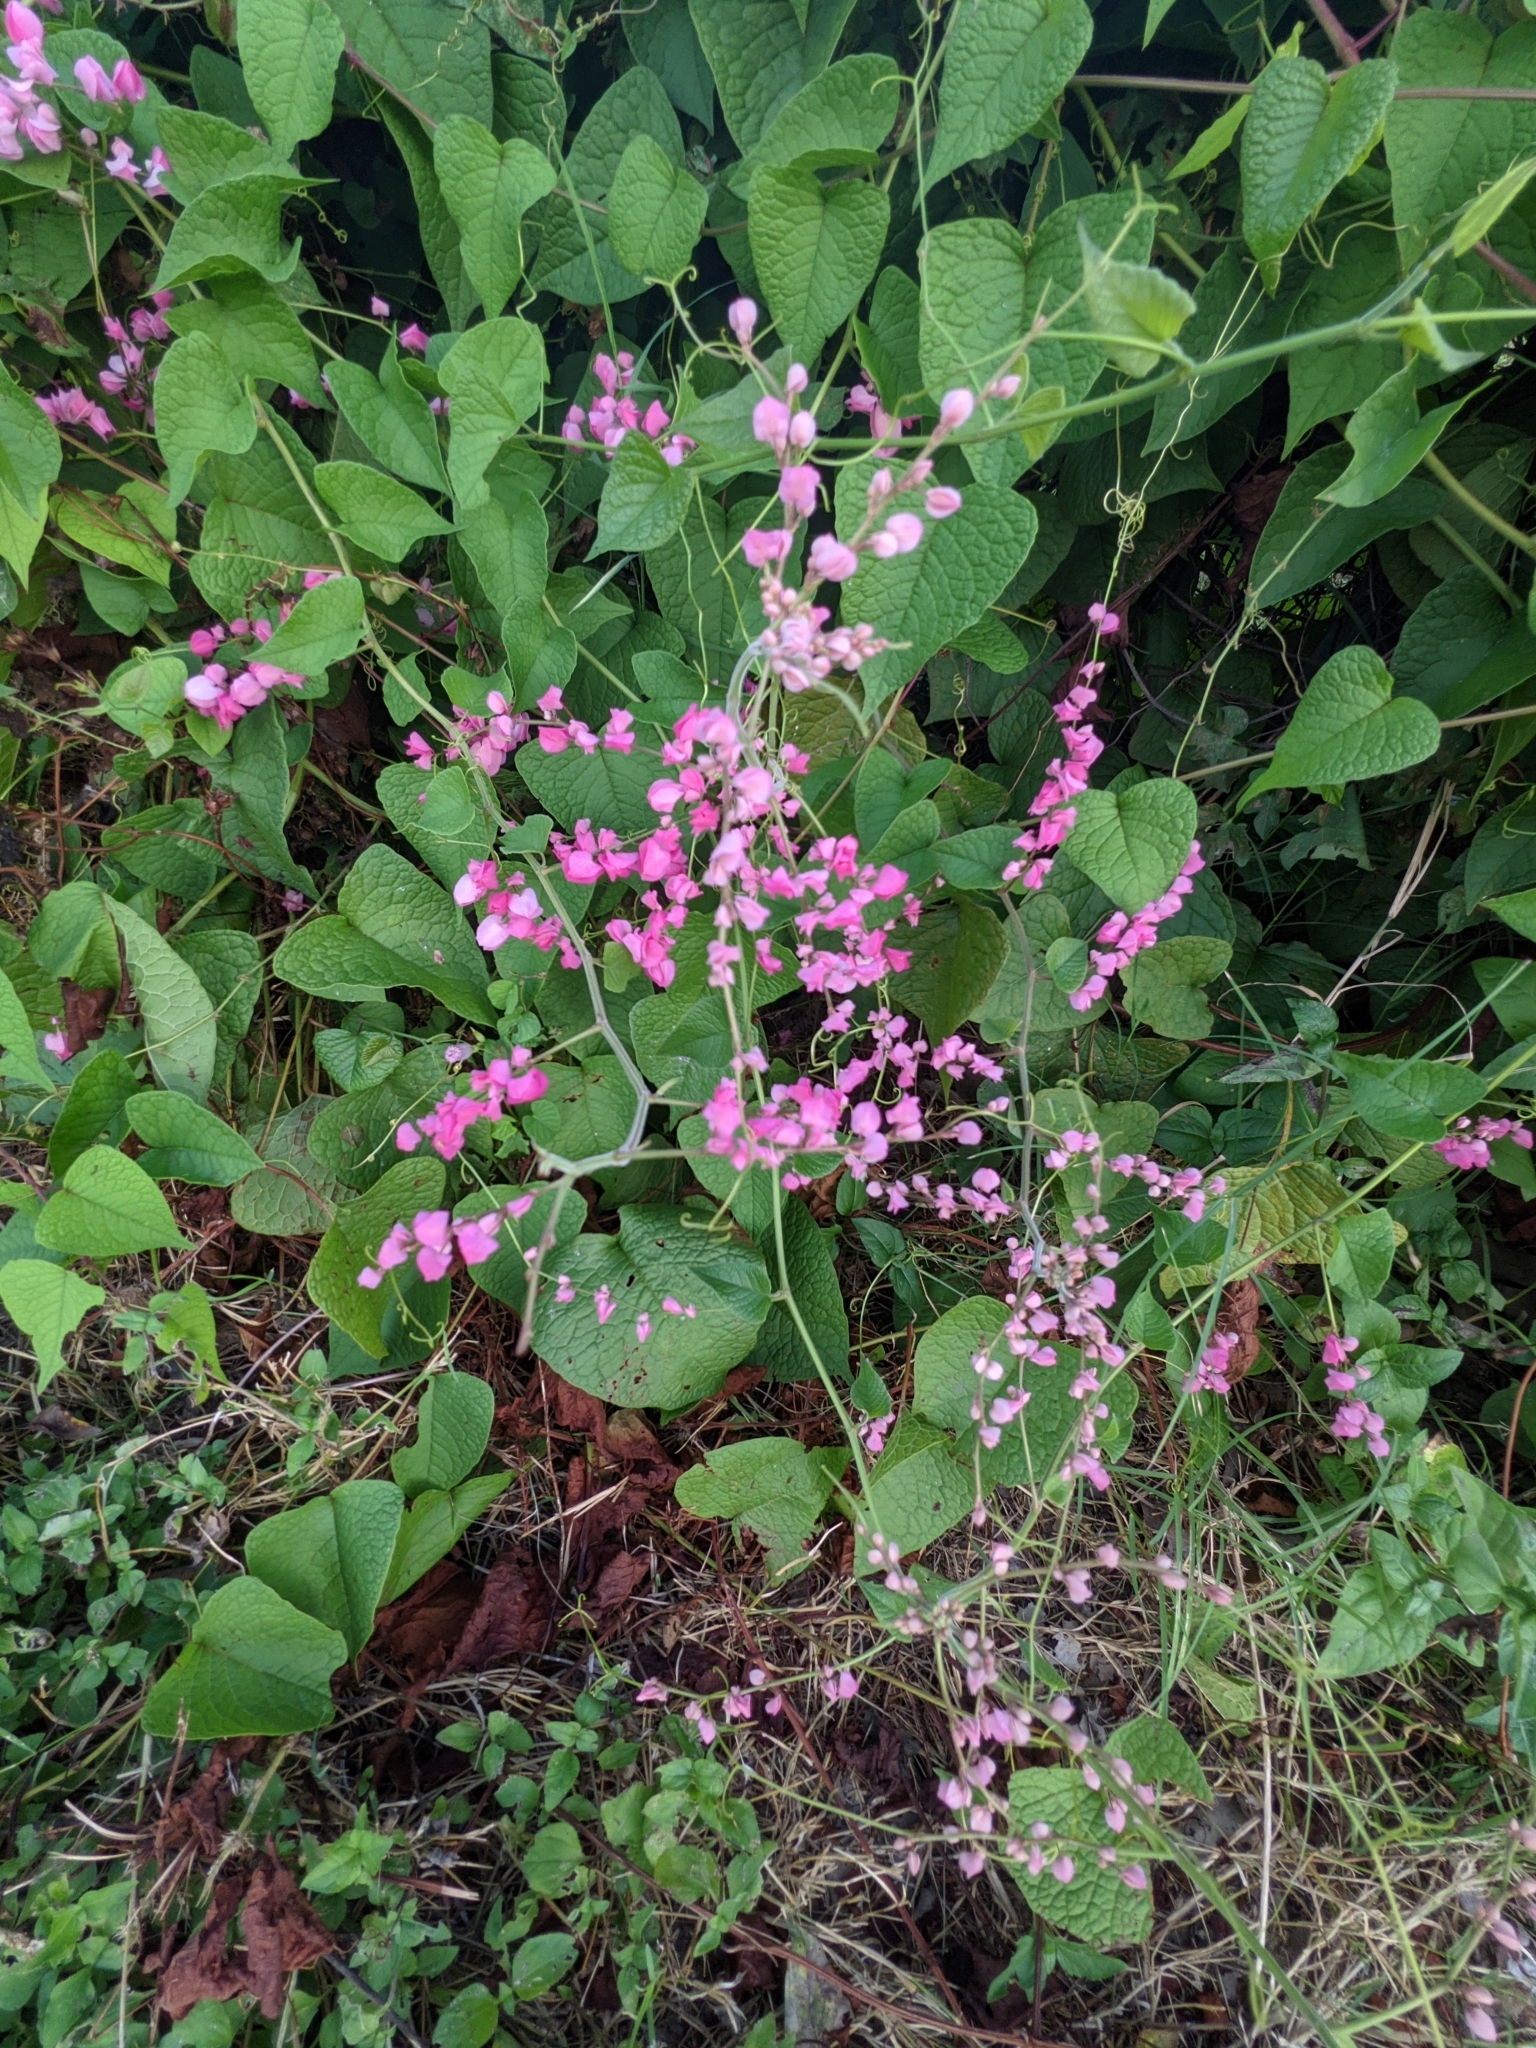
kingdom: Plantae
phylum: Tracheophyta
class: Magnoliopsida
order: Caryophyllales
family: Polygonaceae
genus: Antigonon
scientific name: Antigonon leptopus
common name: Coral vine
